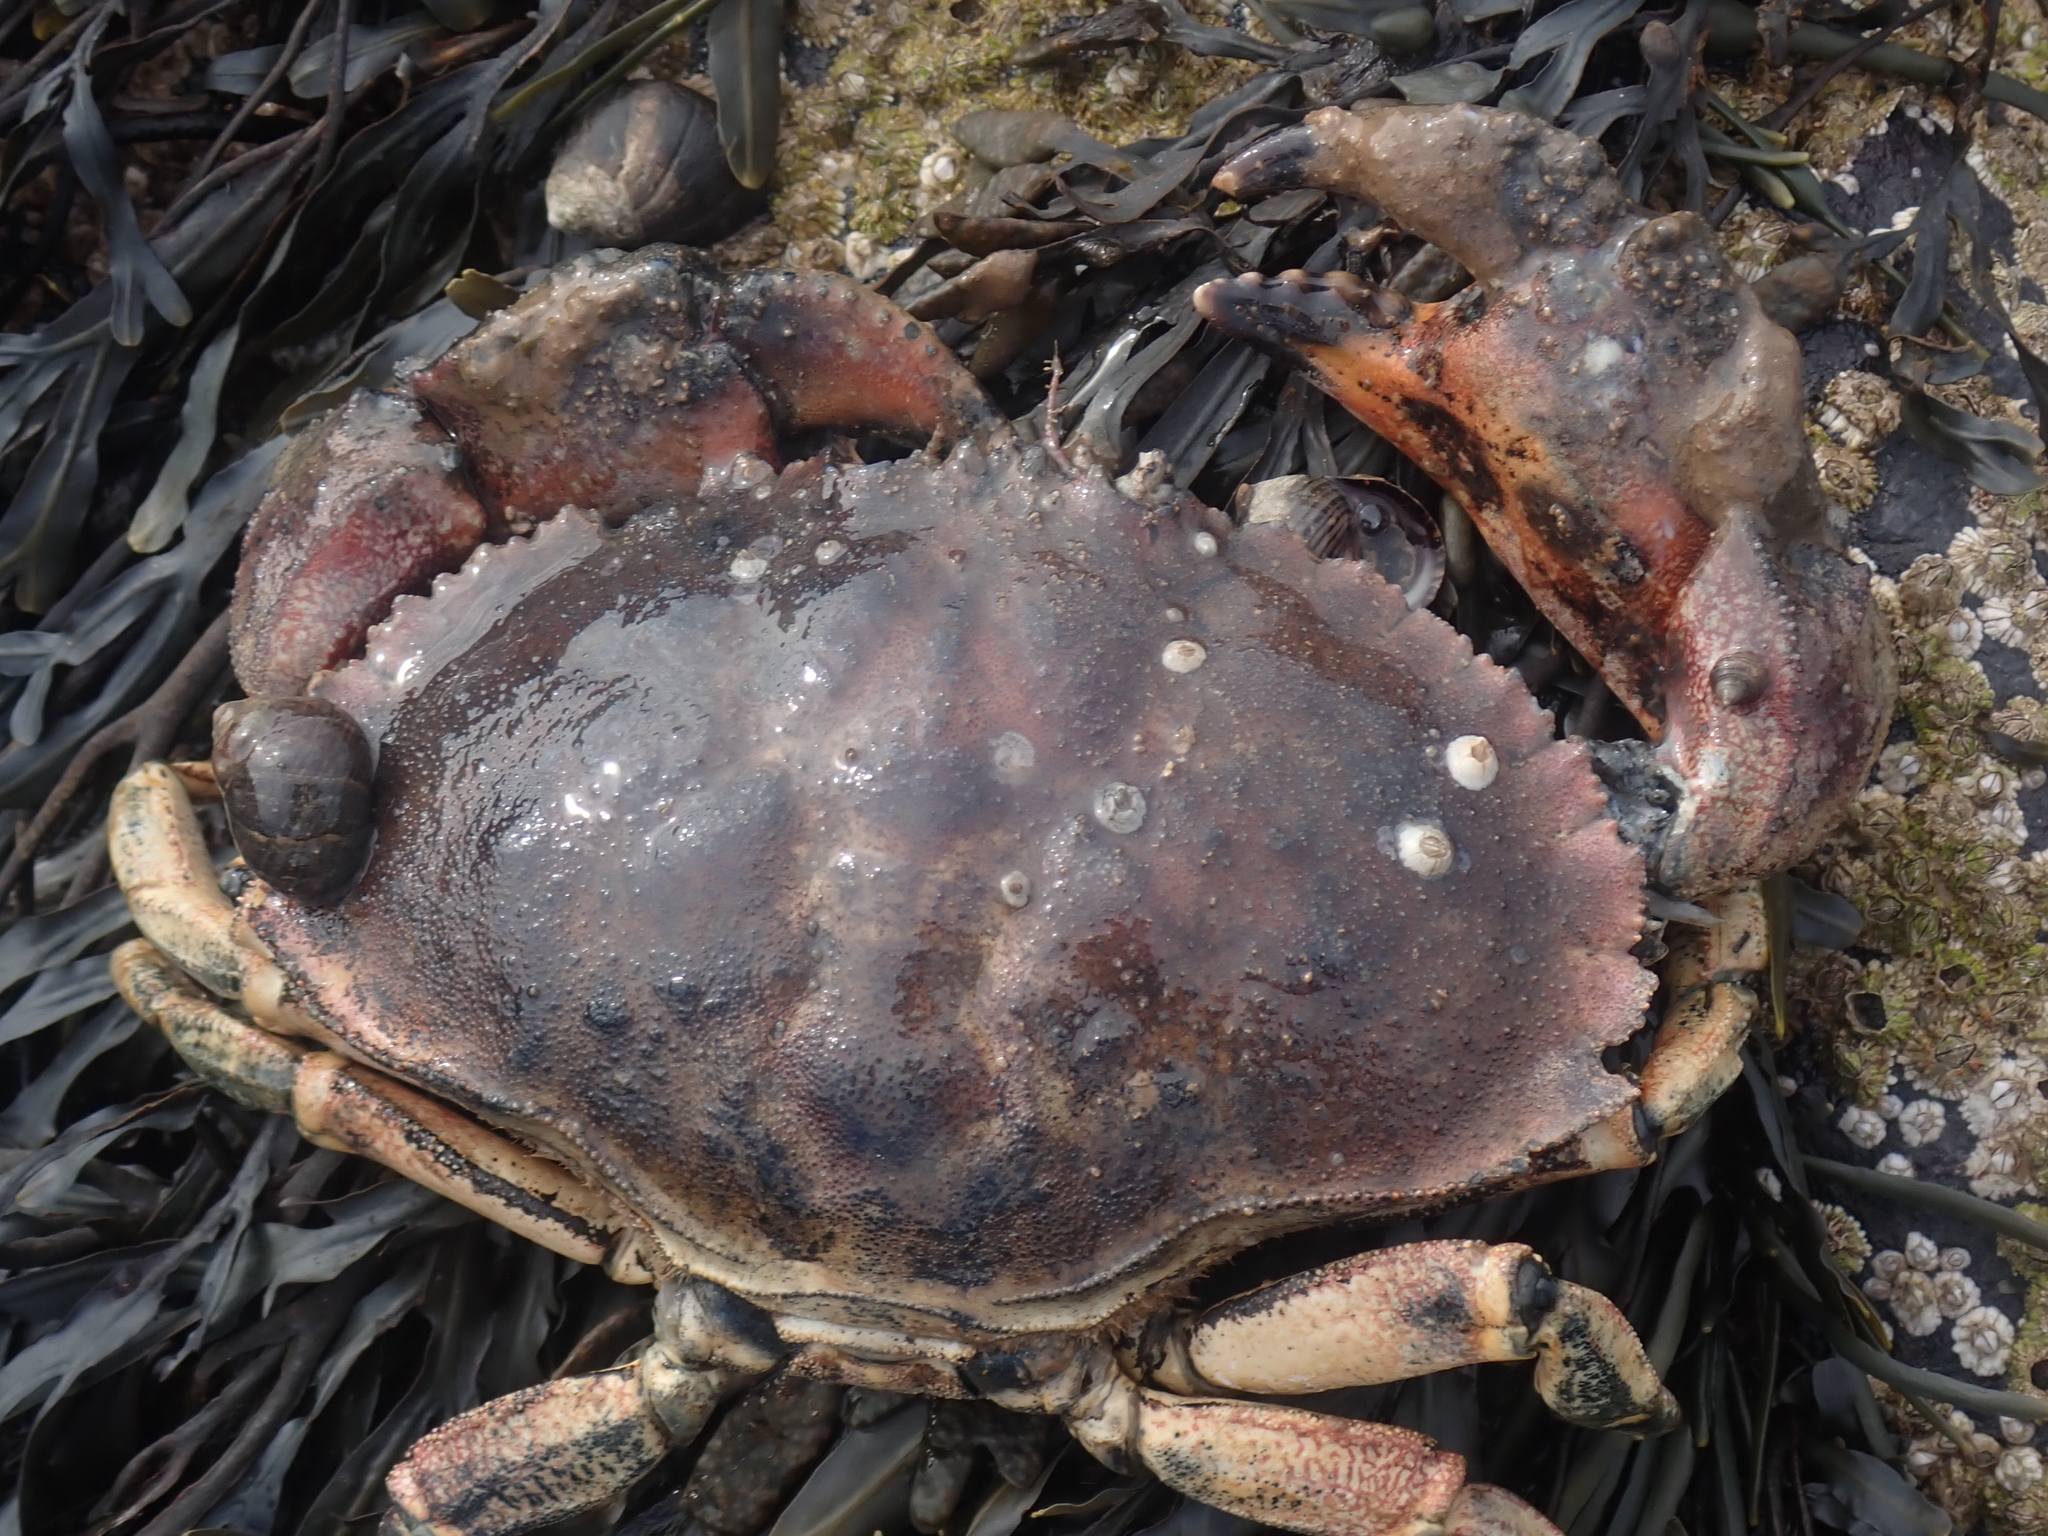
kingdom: Animalia
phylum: Arthropoda
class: Malacostraca
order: Decapoda
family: Cancridae
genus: Cancer
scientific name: Cancer borealis
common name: Jonah crab
